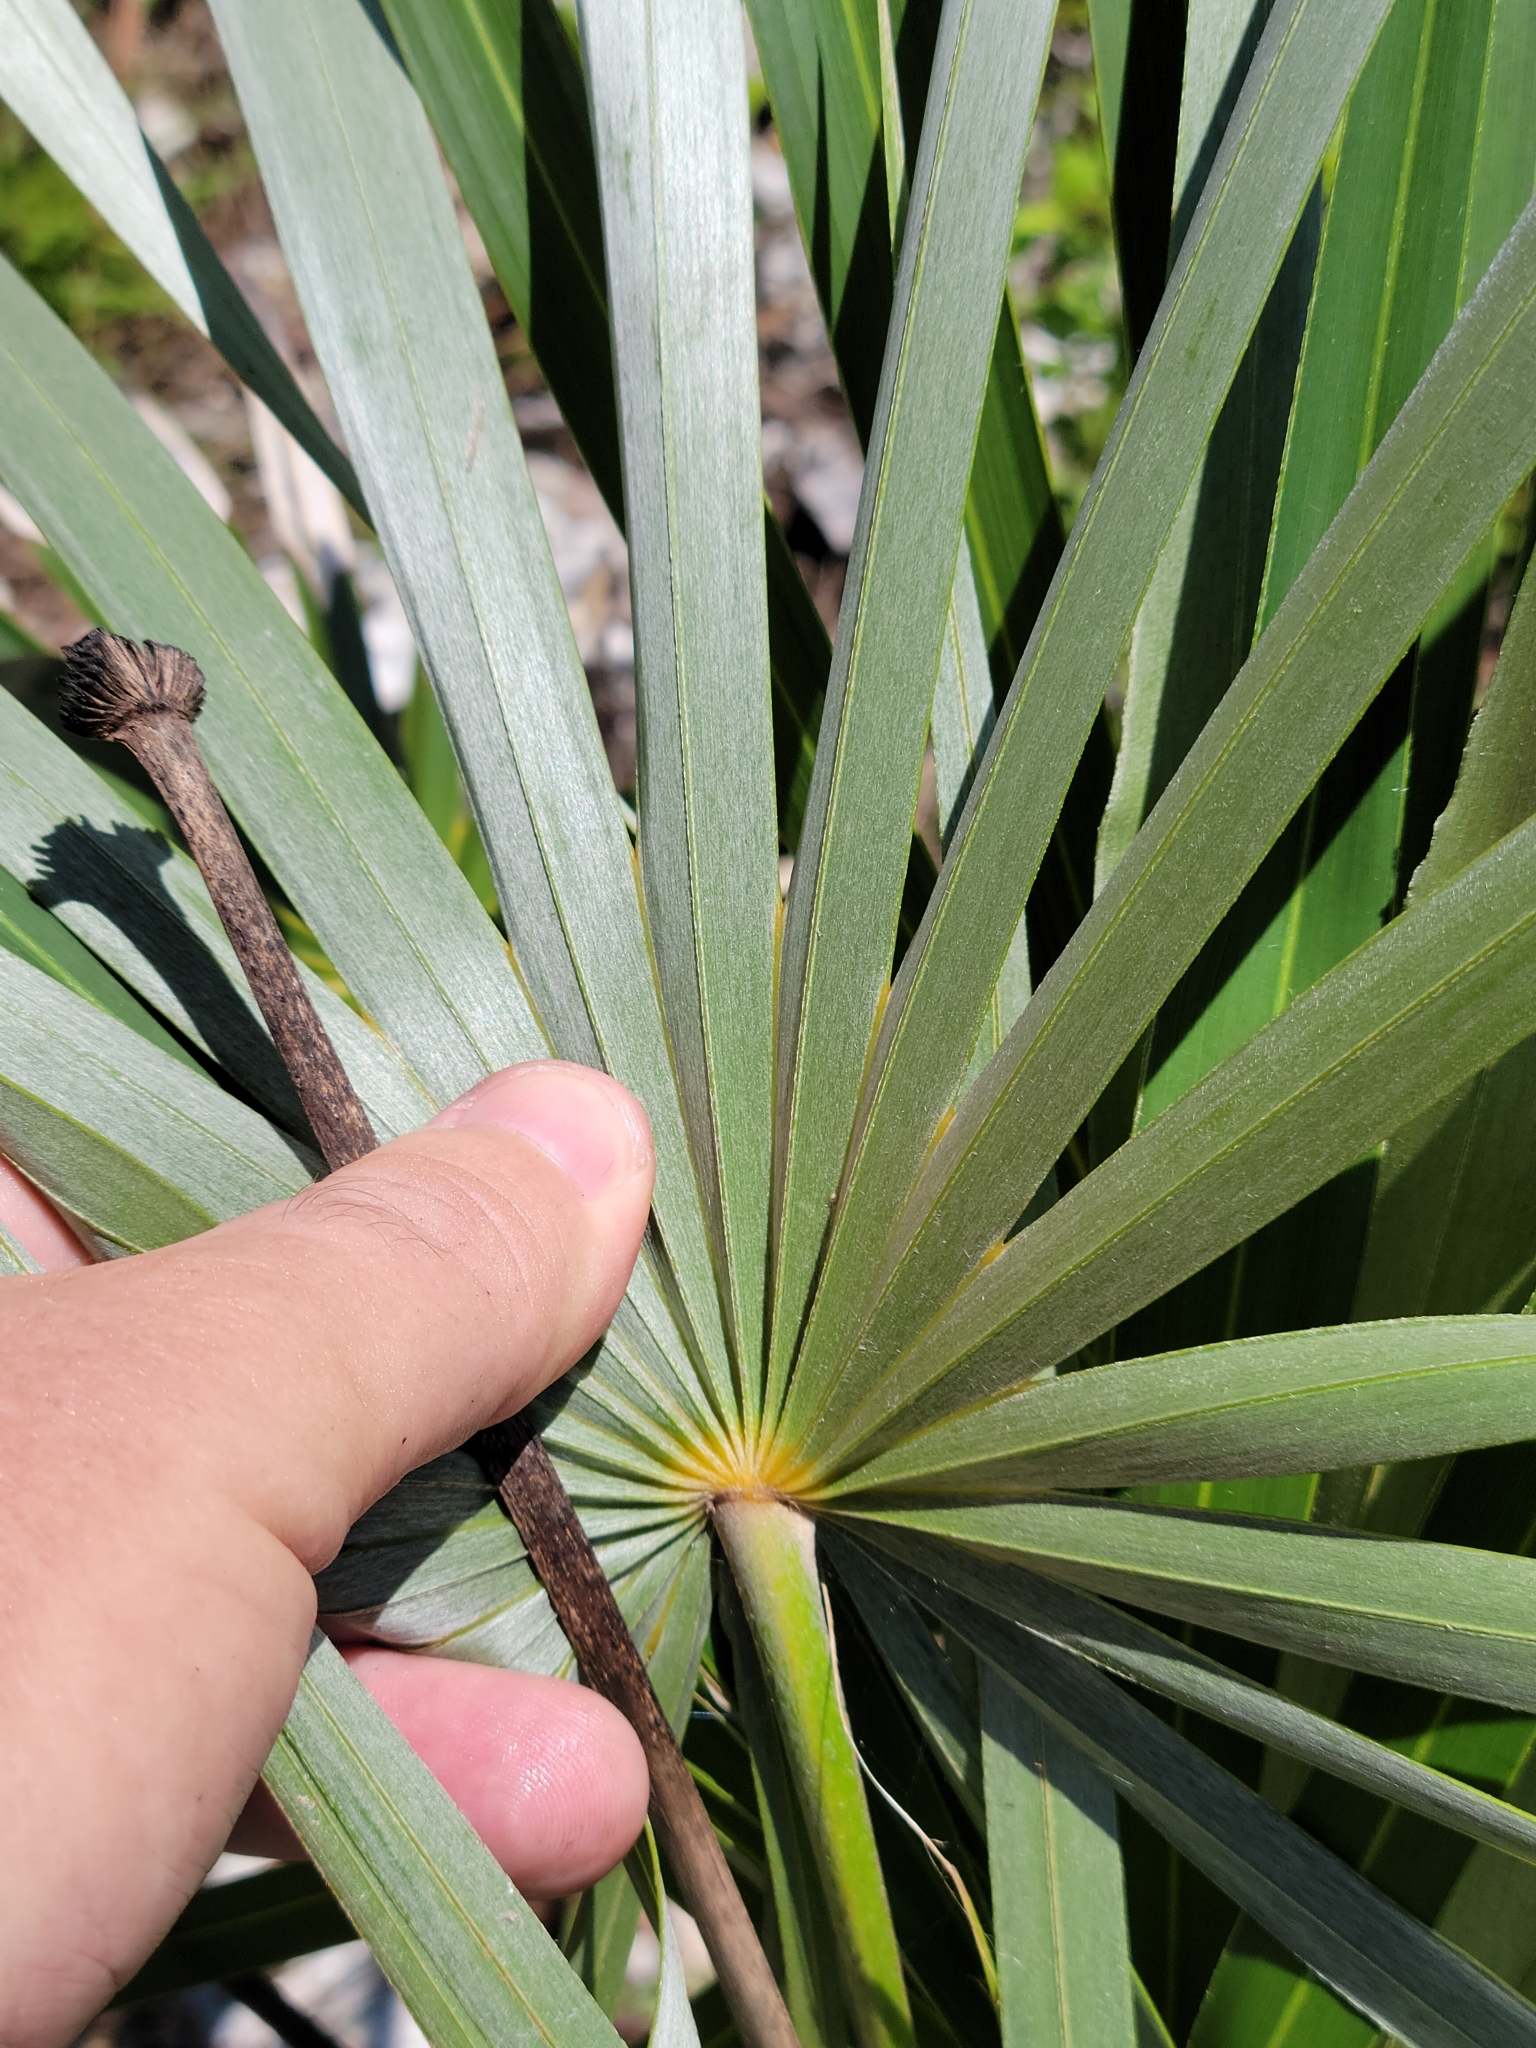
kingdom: Plantae
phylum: Tracheophyta
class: Liliopsida
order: Arecales
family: Arecaceae
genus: Coccothrinax
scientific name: Coccothrinax argentata
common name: Florida silver palm
